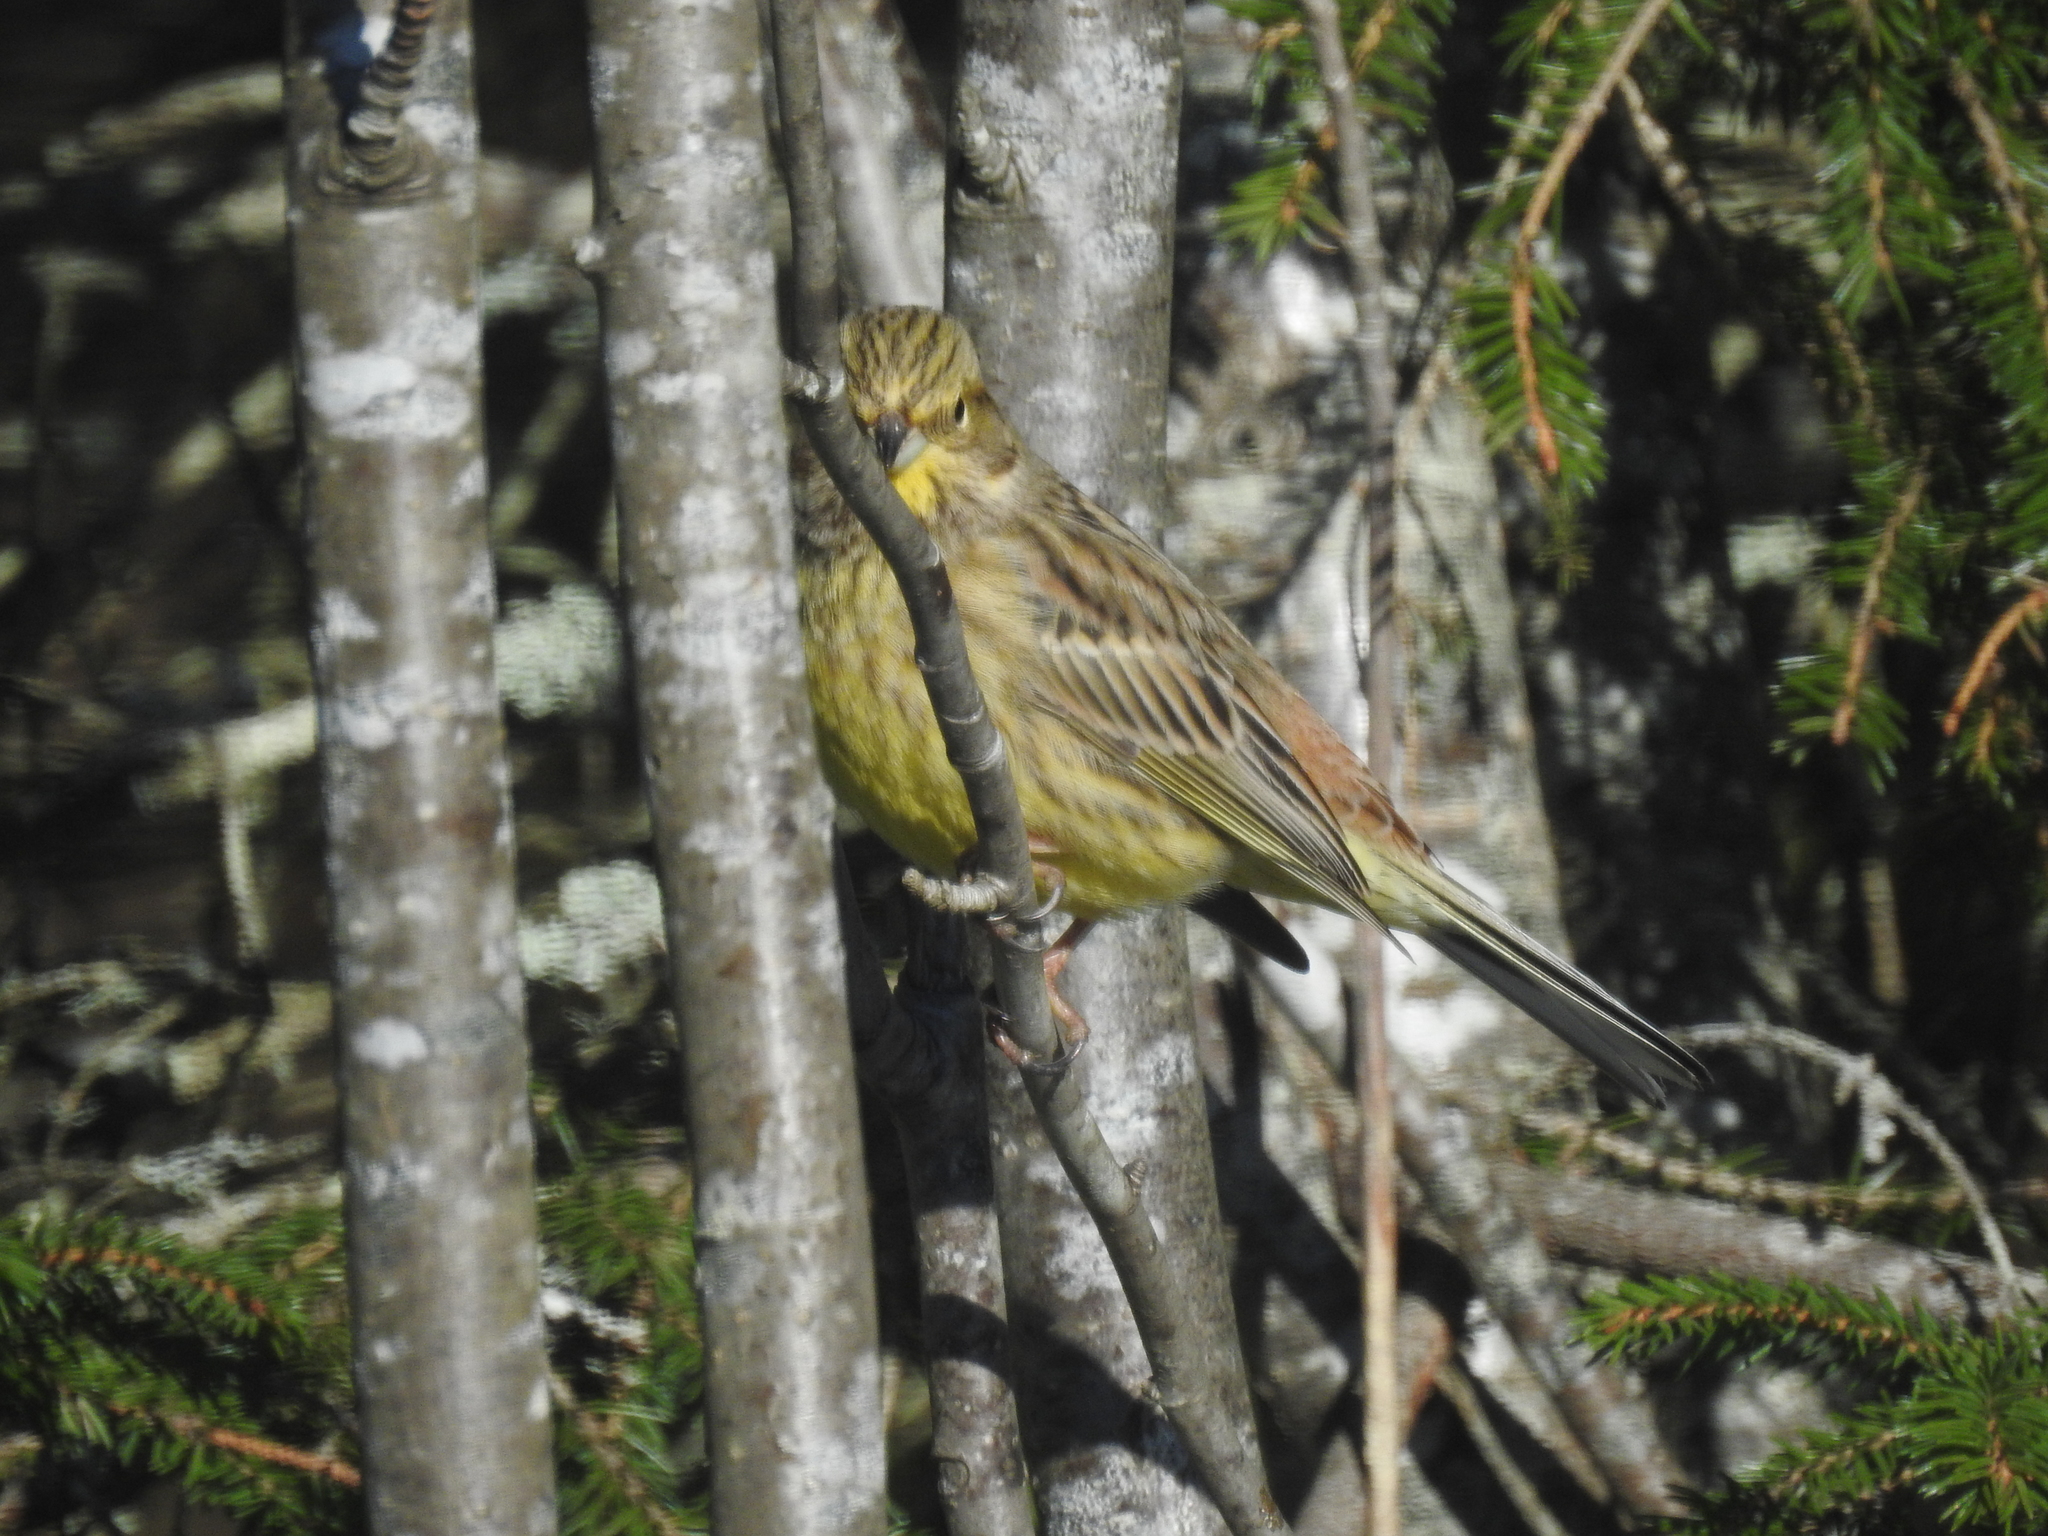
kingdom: Animalia
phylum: Chordata
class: Aves
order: Passeriformes
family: Emberizidae
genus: Emberiza
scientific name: Emberiza citrinella
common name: Yellowhammer
